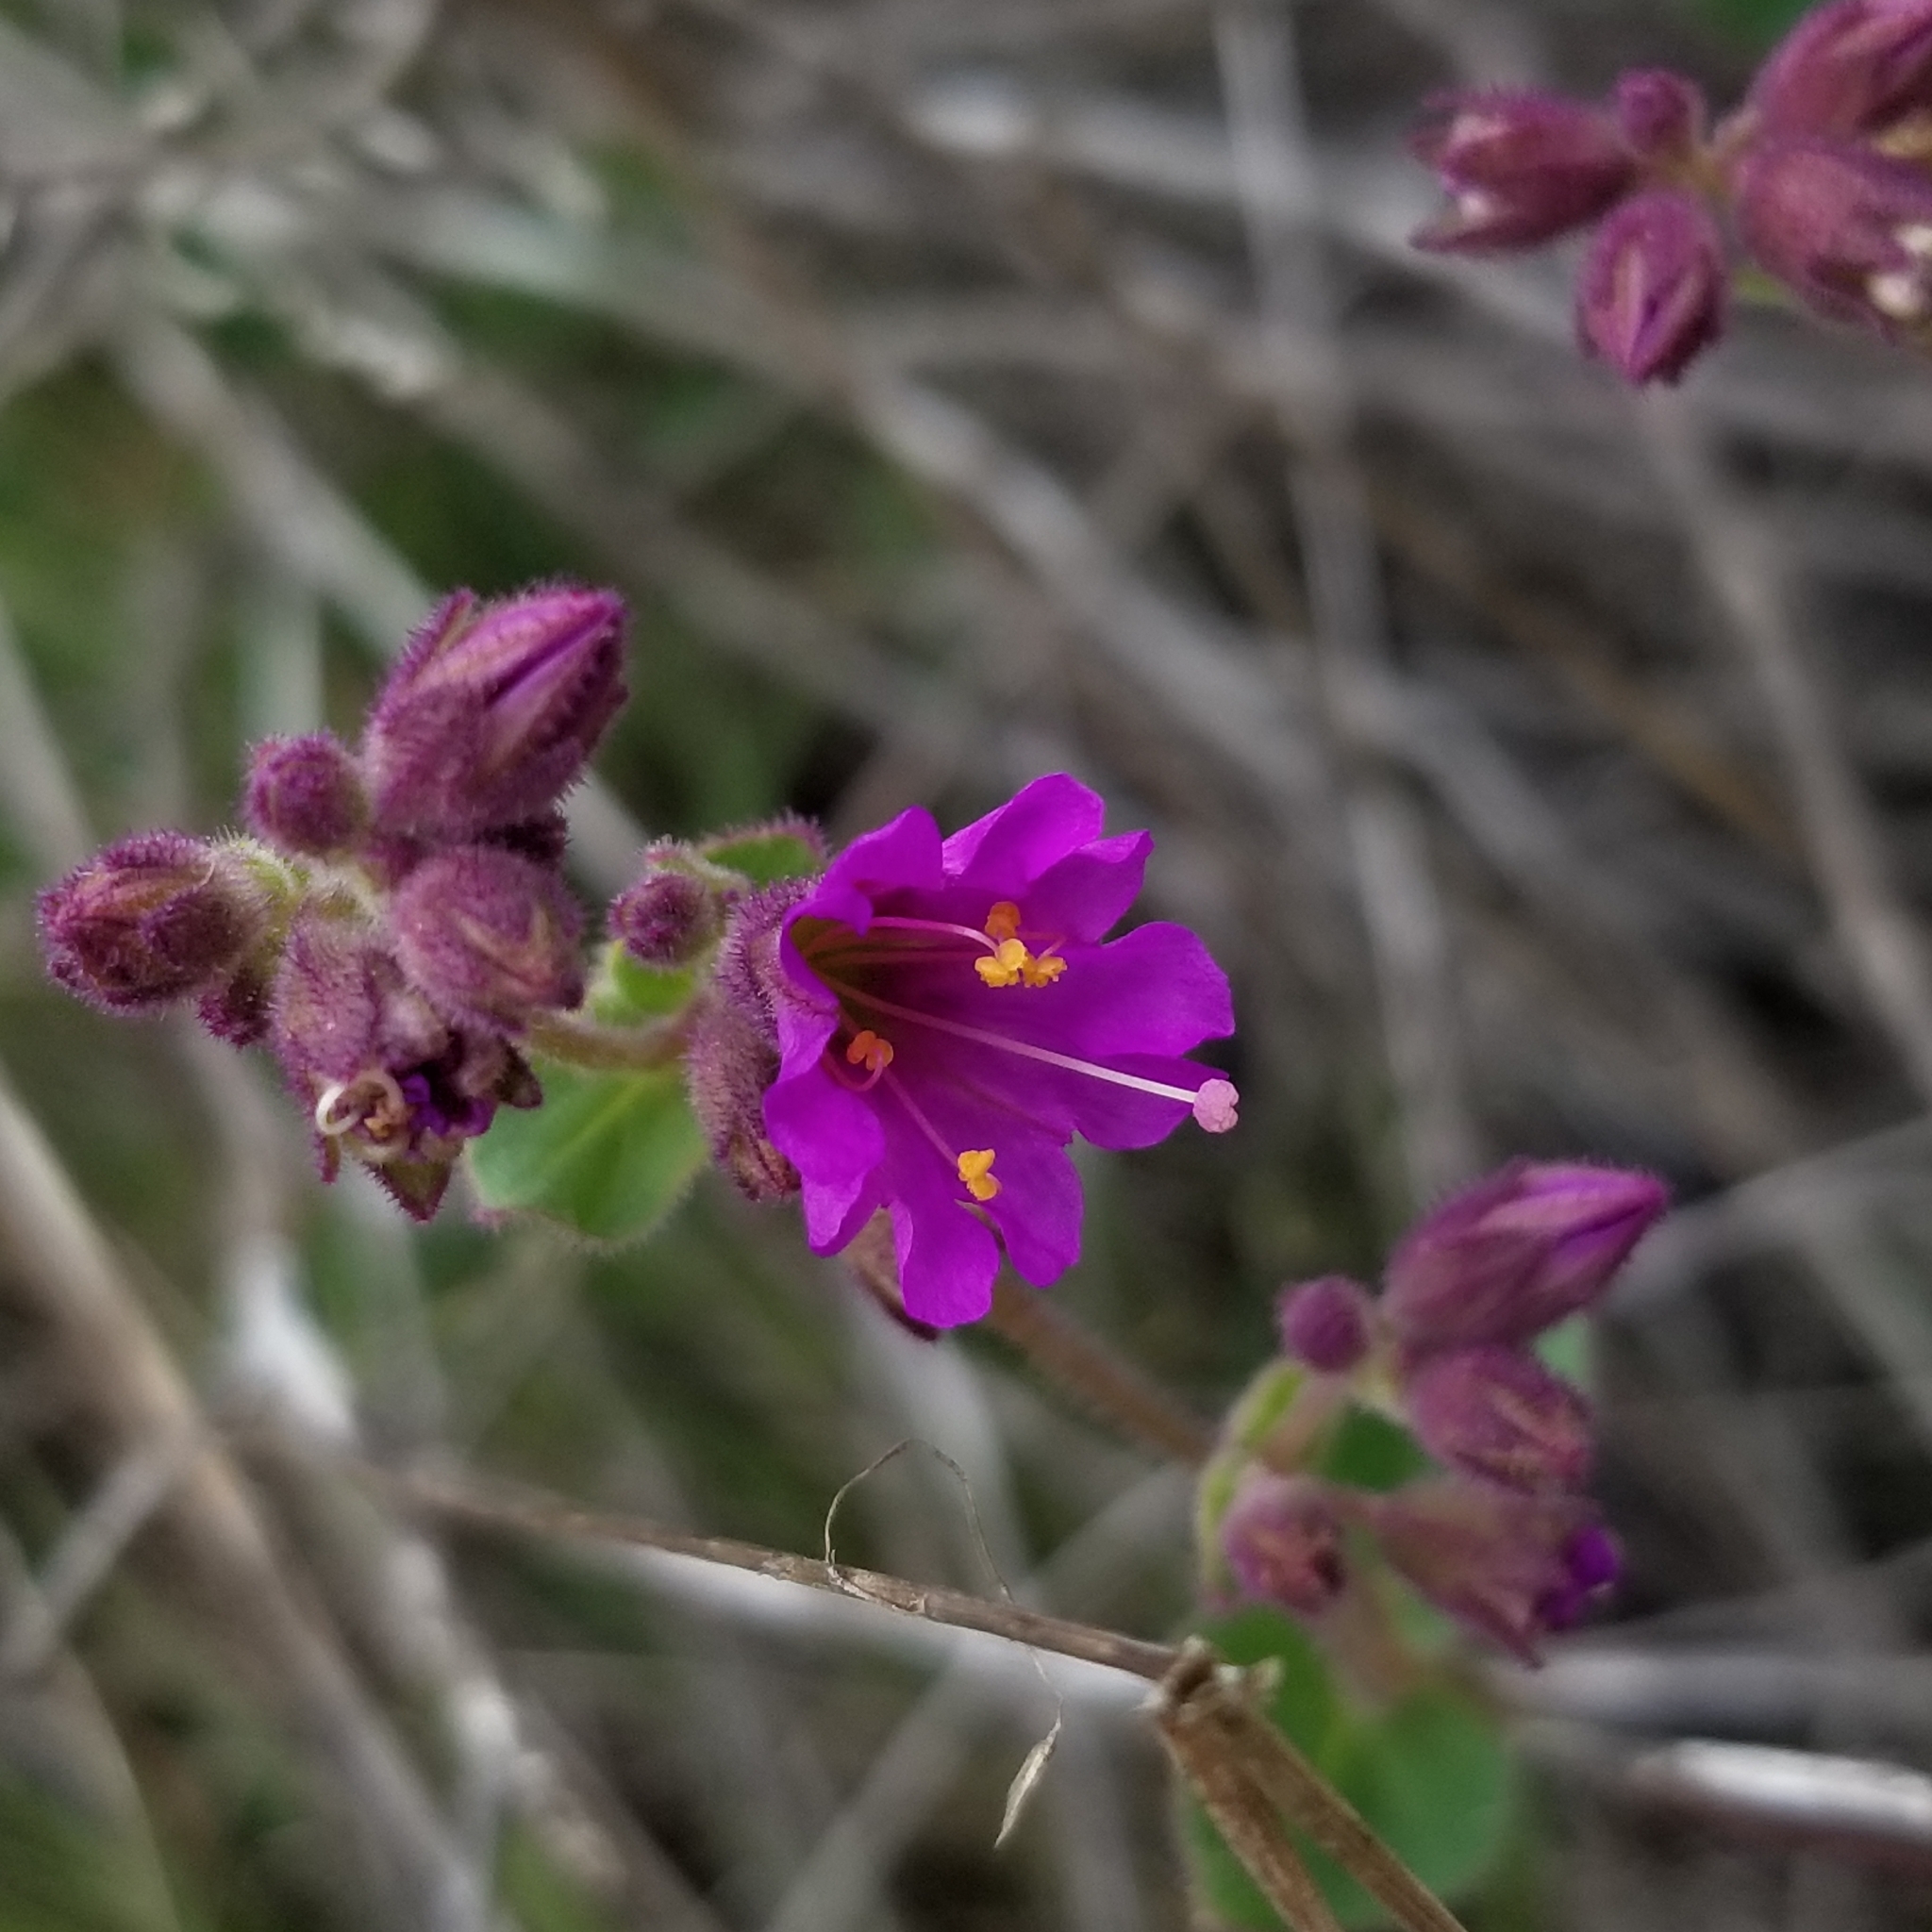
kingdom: Plantae
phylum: Tracheophyta
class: Magnoliopsida
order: Caryophyllales
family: Nyctaginaceae
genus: Mirabilis
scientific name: Mirabilis laevis
